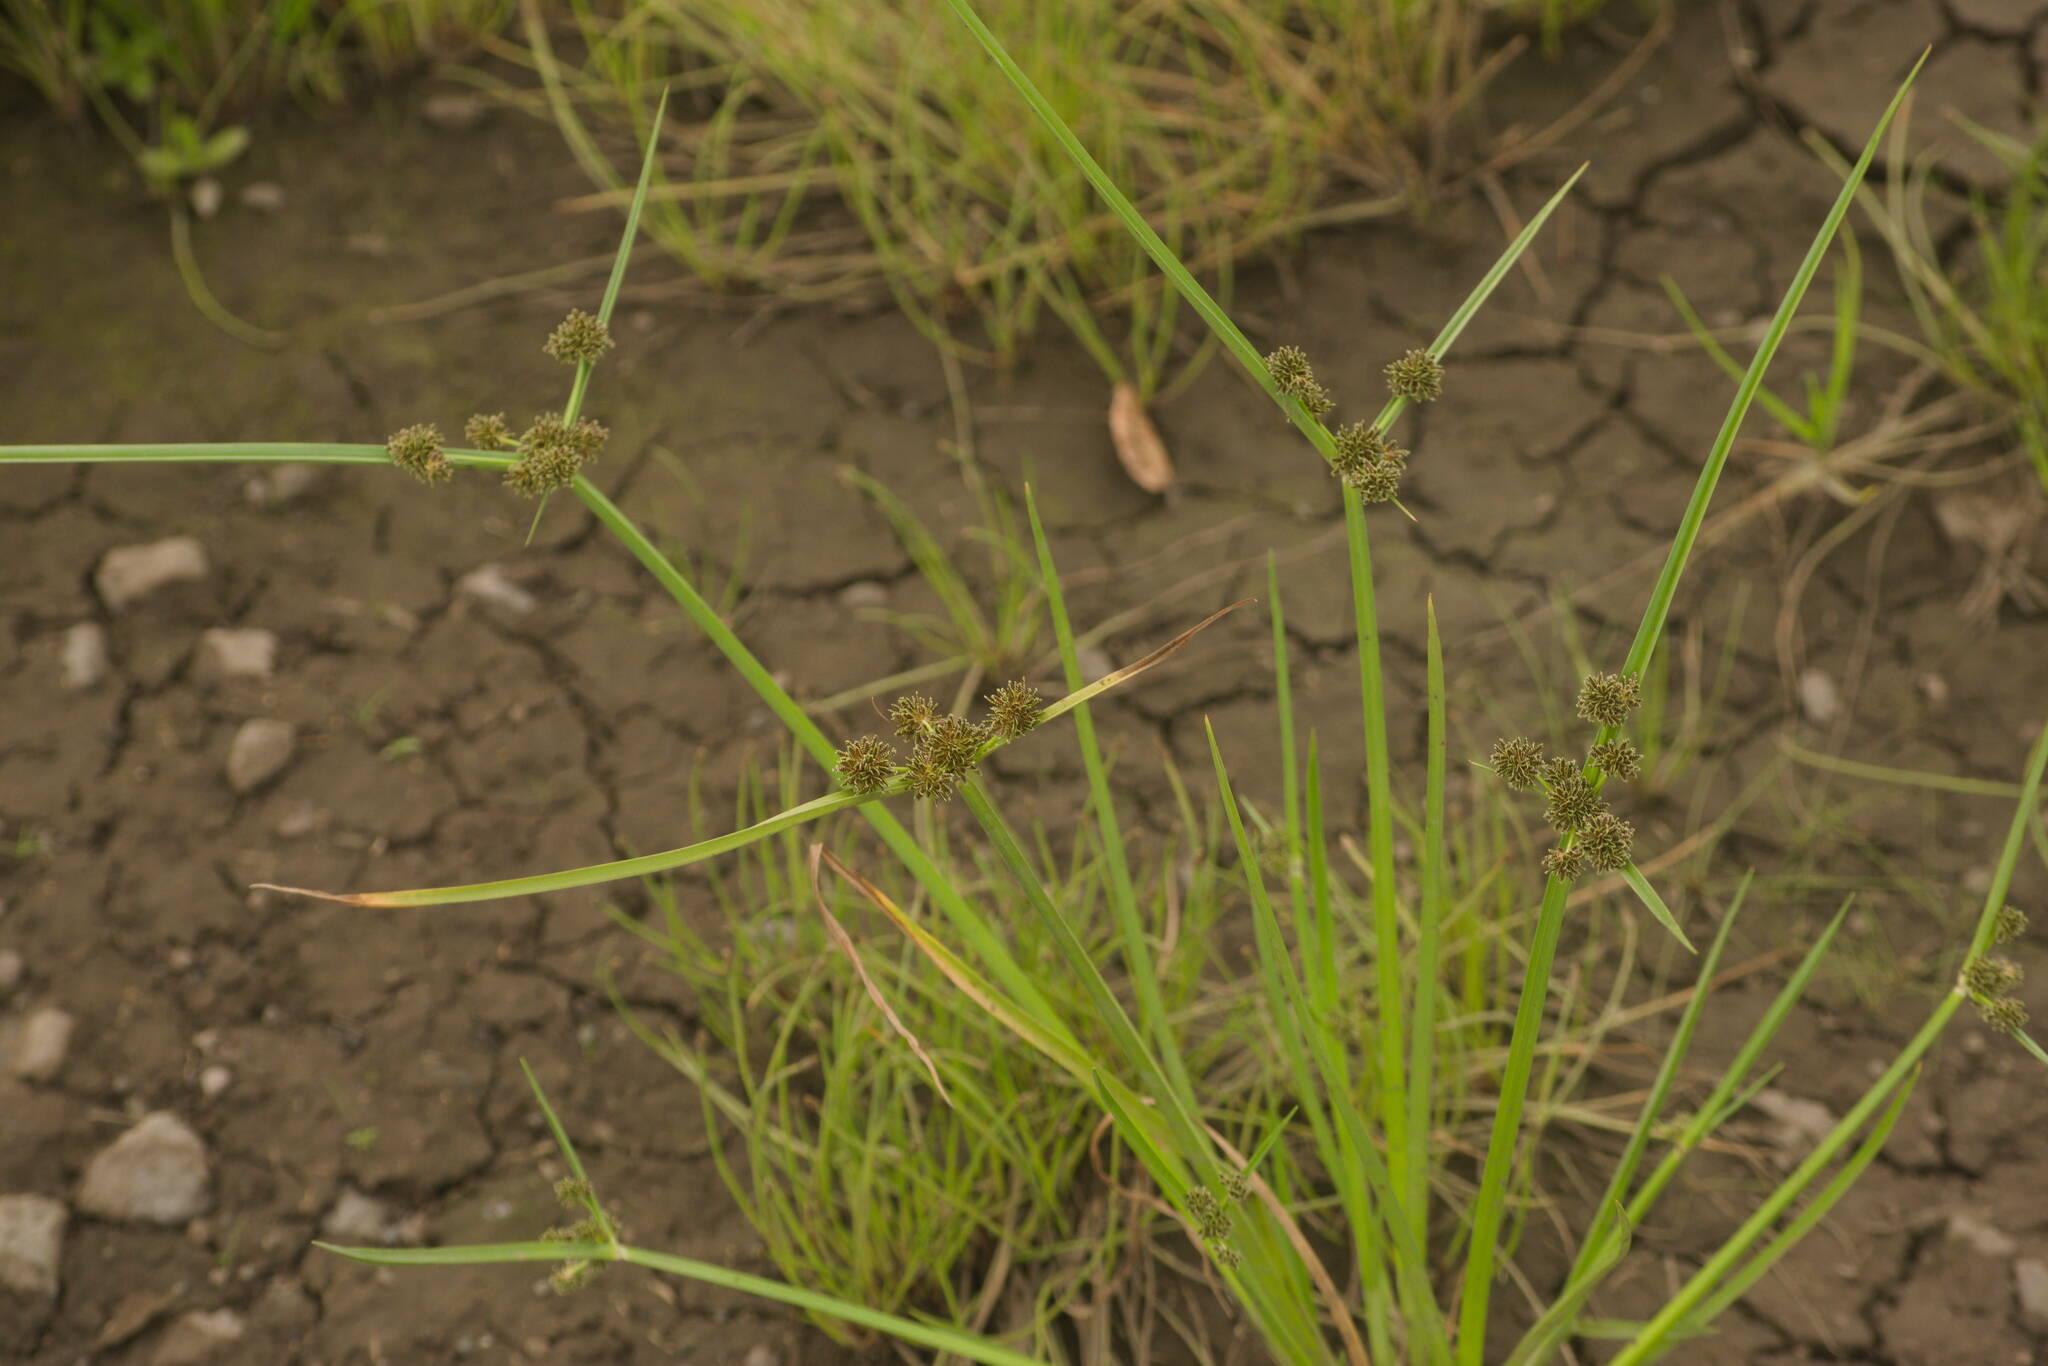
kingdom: Plantae
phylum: Tracheophyta
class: Liliopsida
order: Poales
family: Cyperaceae
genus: Cyperus
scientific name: Cyperus difformis
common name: Variable flatsedge
